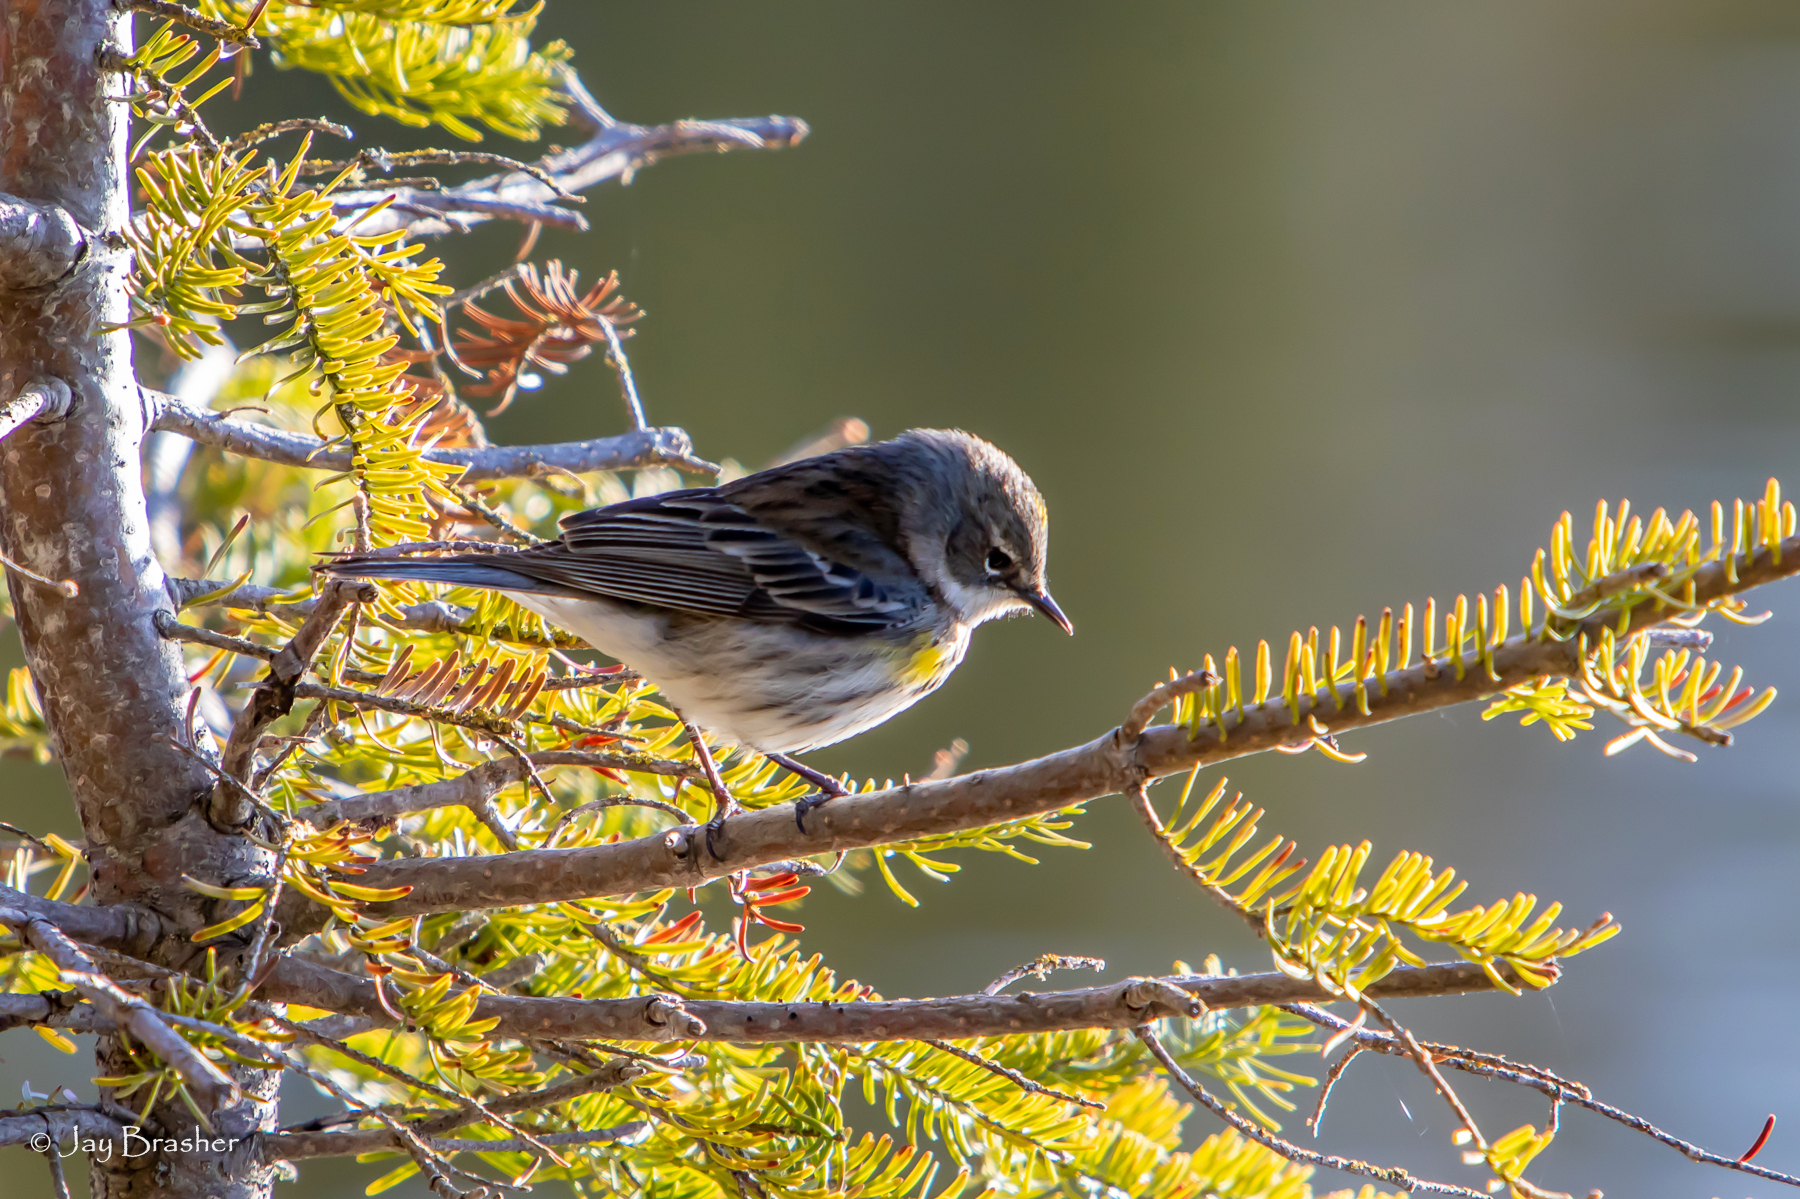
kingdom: Animalia
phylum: Chordata
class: Aves
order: Passeriformes
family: Parulidae
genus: Setophaga
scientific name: Setophaga coronata
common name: Myrtle warbler
